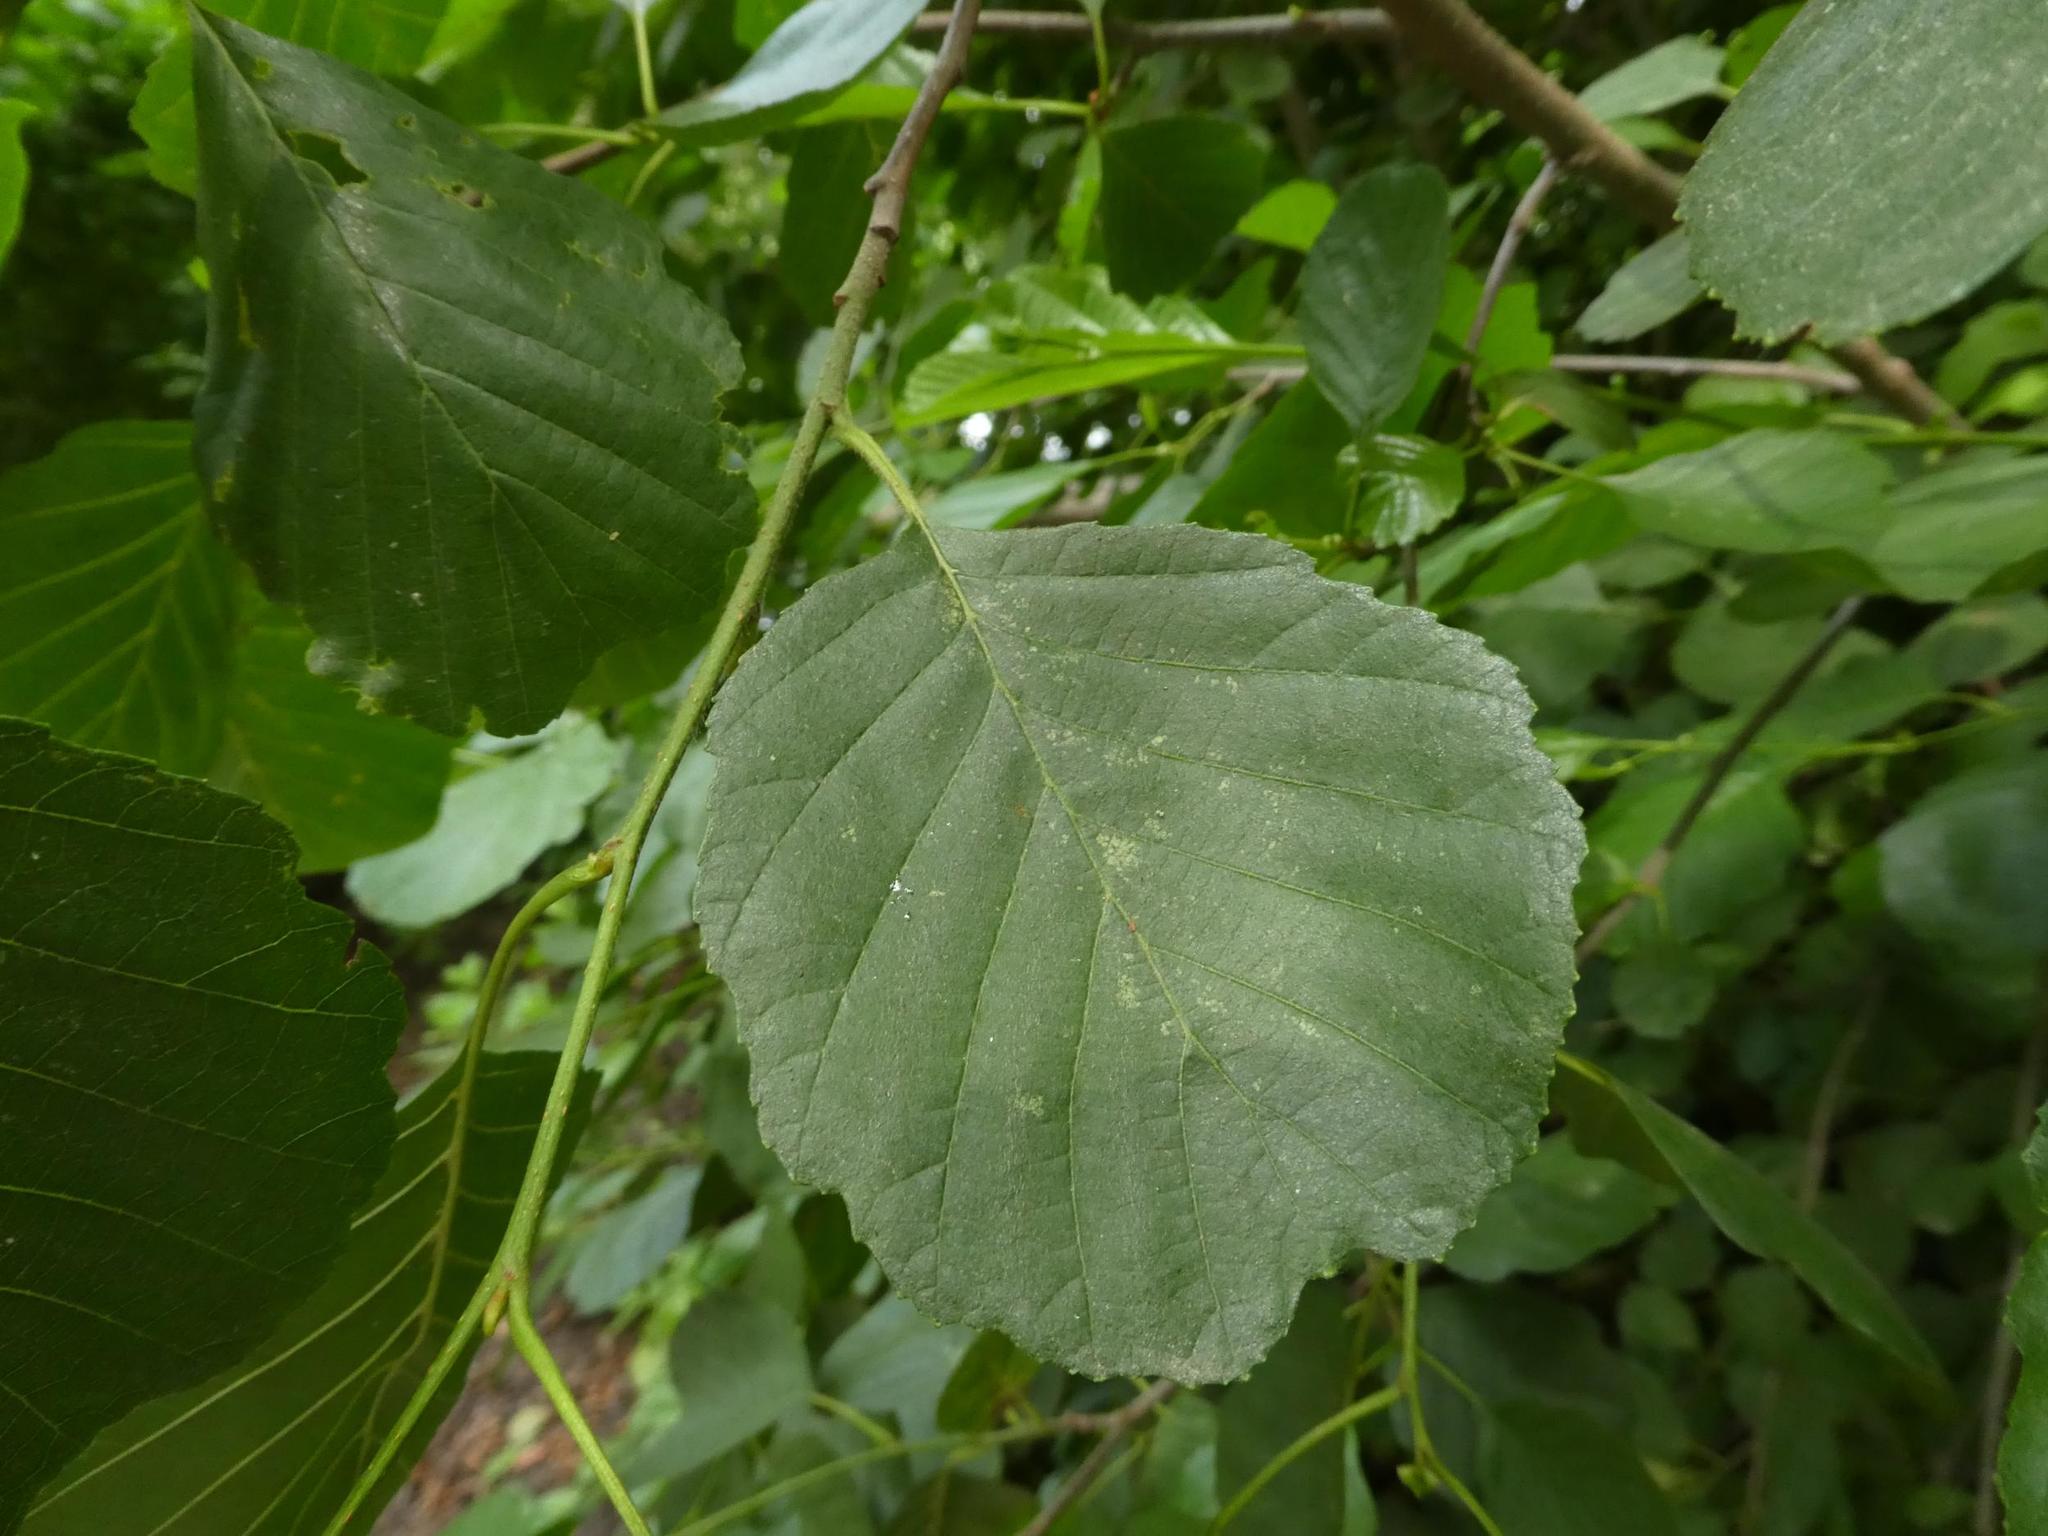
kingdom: Plantae
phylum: Tracheophyta
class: Magnoliopsida
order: Fagales
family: Betulaceae
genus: Alnus
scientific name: Alnus glutinosa
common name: Black alder
